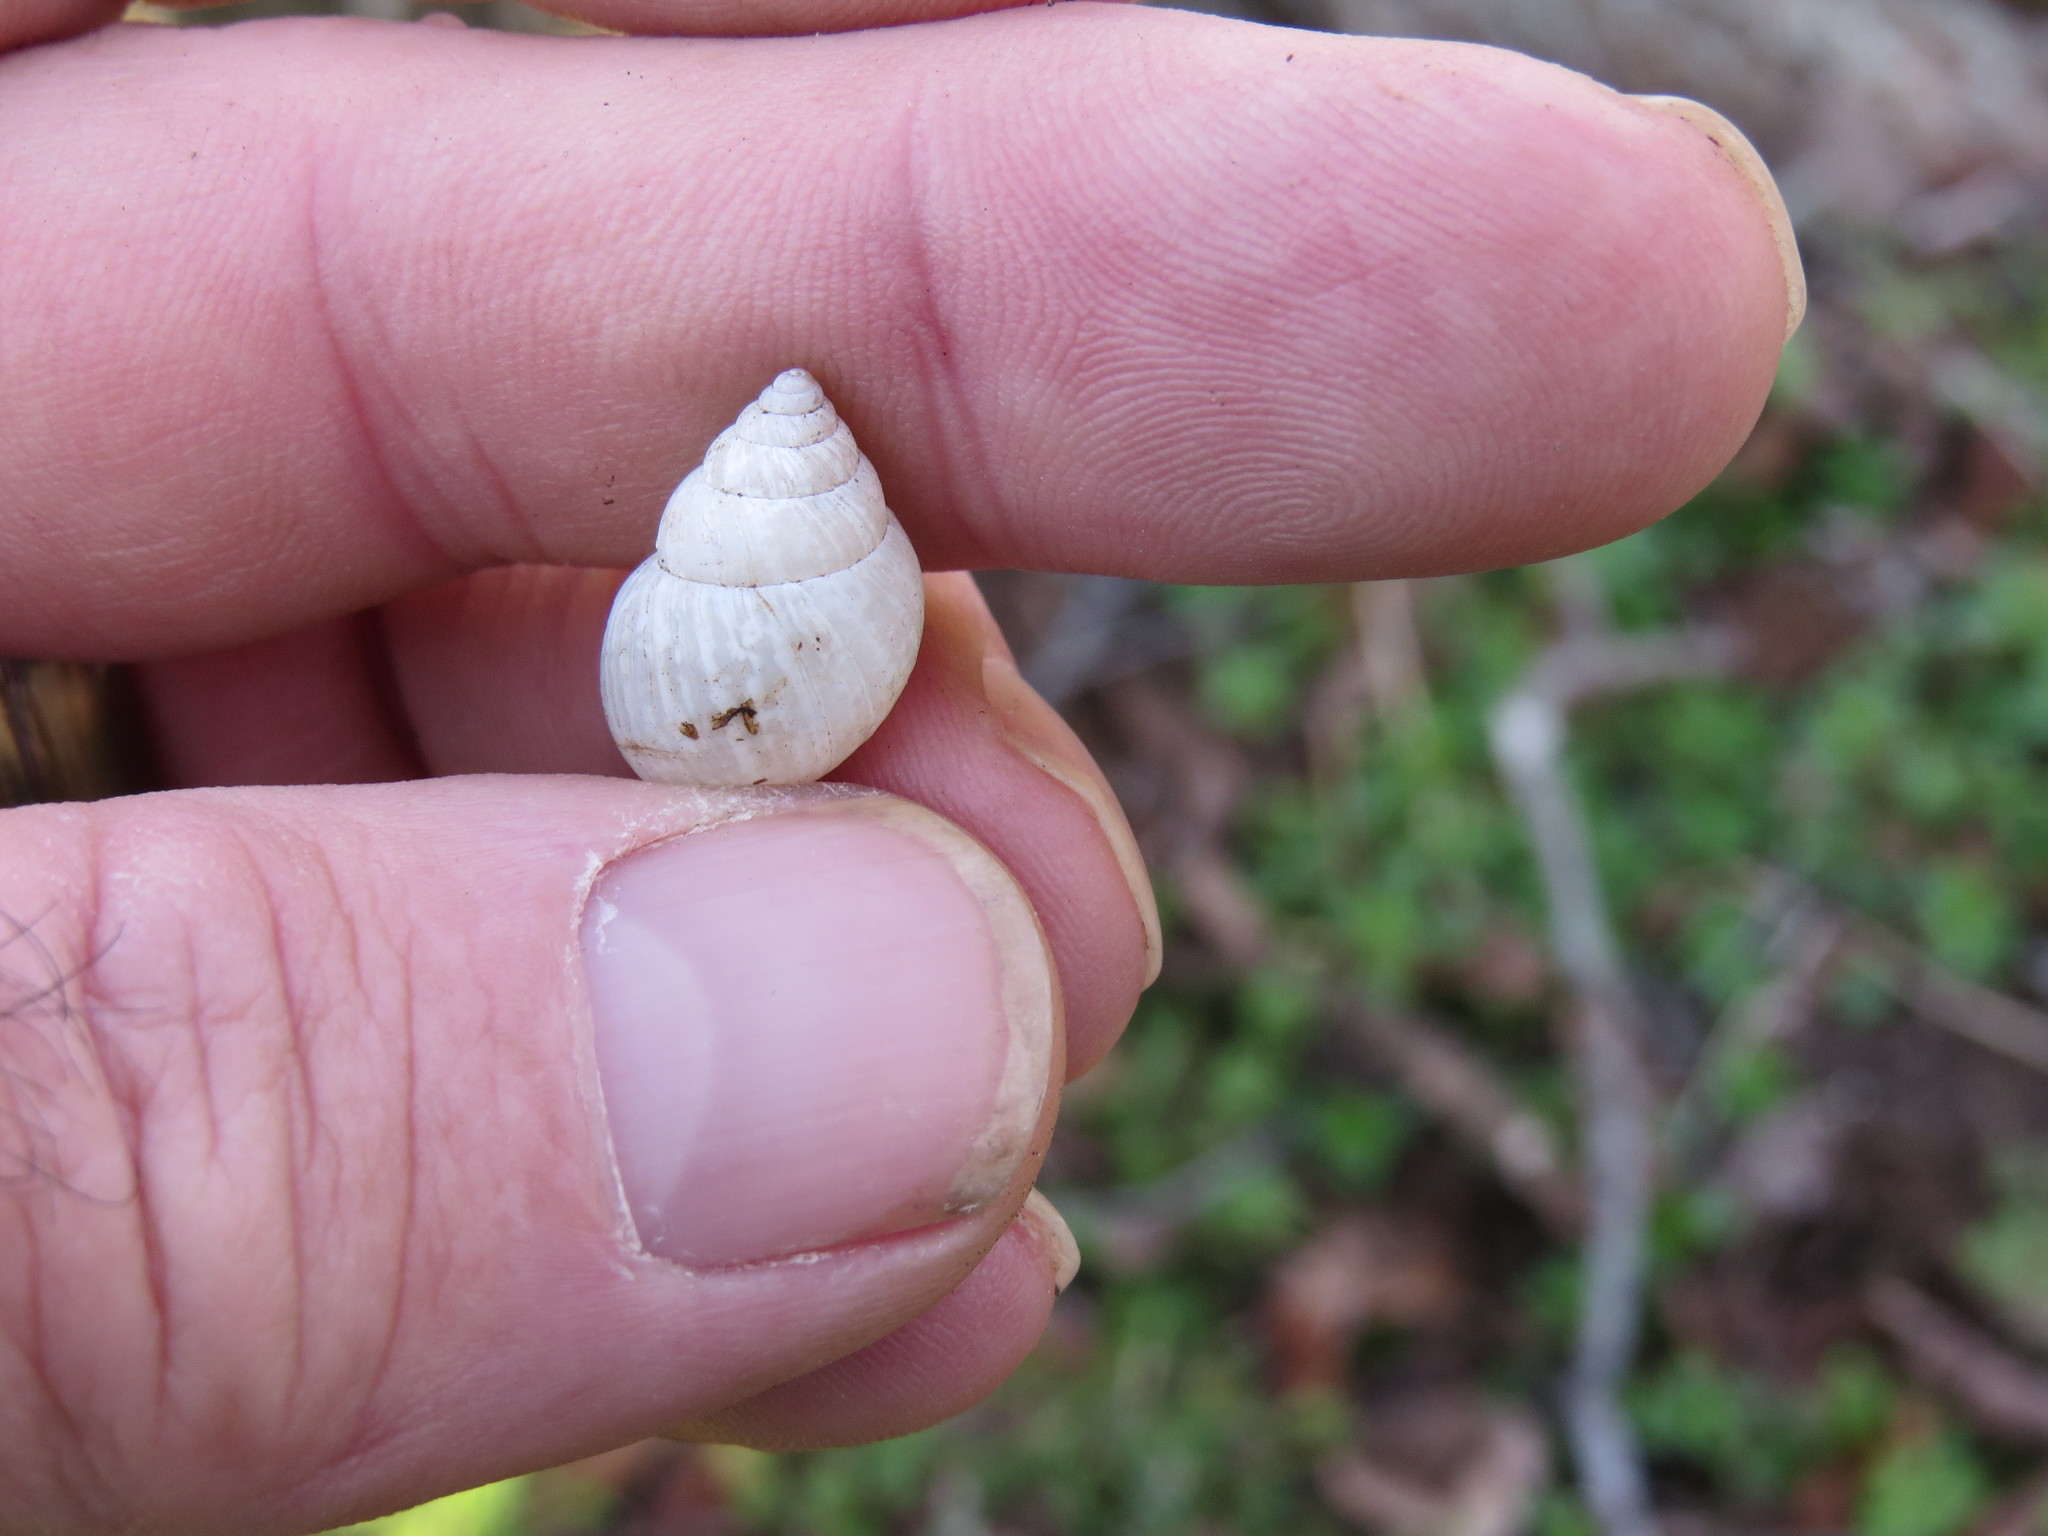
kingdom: Animalia
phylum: Mollusca
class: Gastropoda
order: Stylommatophora
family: Bulimulidae
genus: Rabdotus
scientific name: Rabdotus dealbatus
